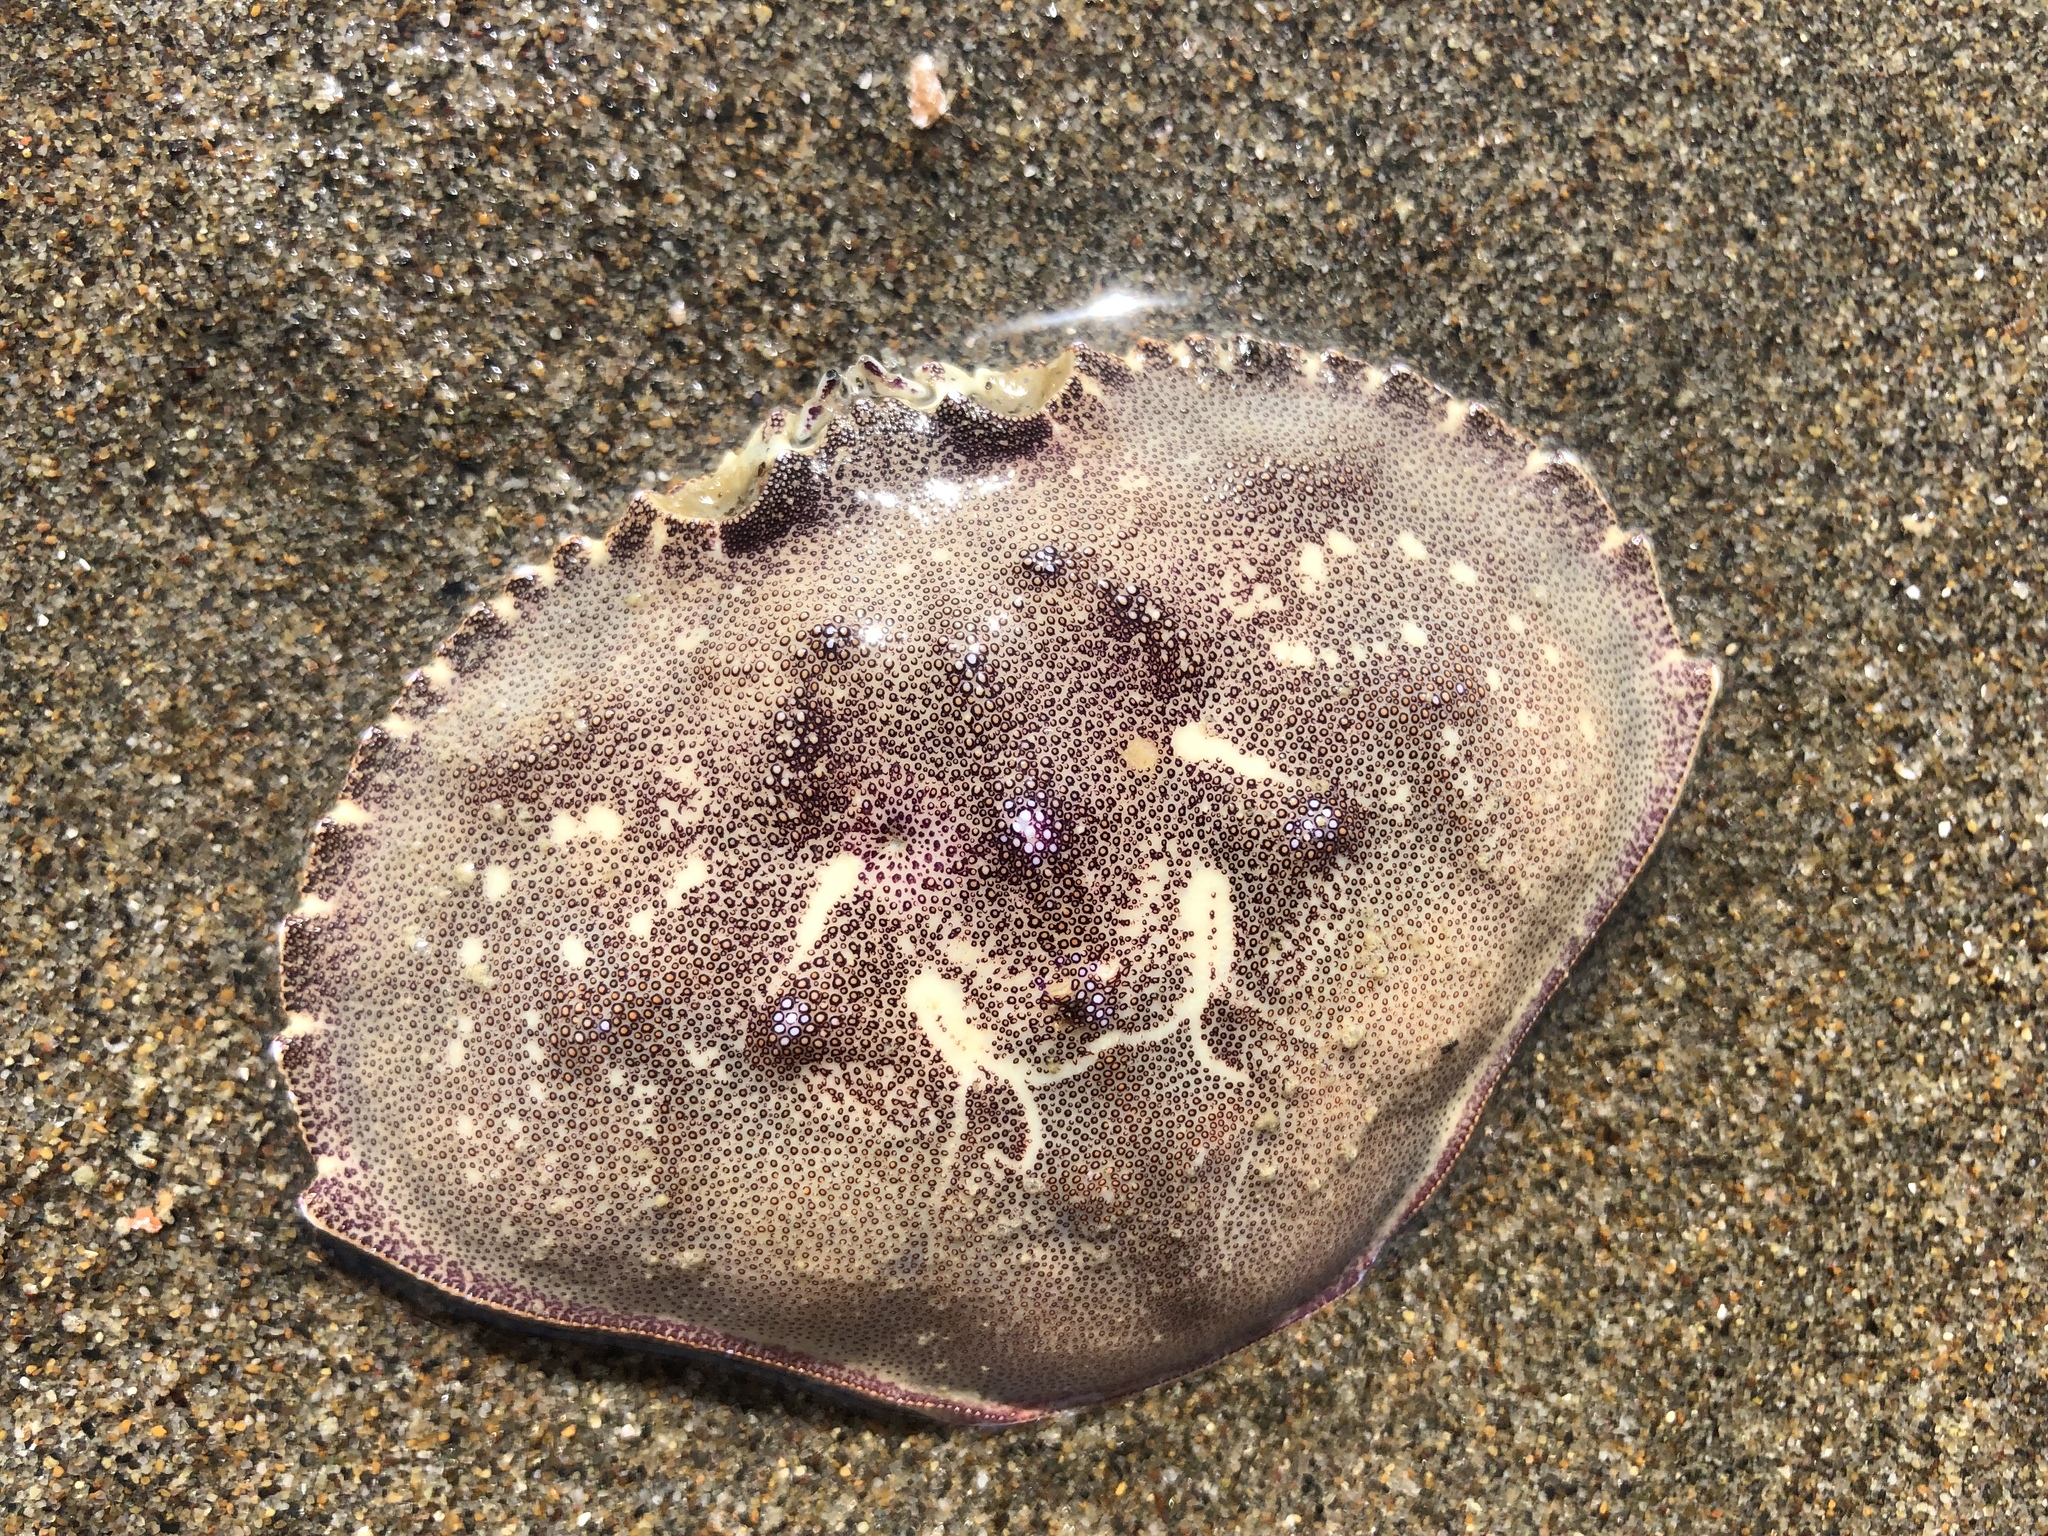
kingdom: Animalia
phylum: Arthropoda
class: Malacostraca
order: Decapoda
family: Cancridae
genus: Metacarcinus
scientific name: Metacarcinus magister
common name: Californian crab
